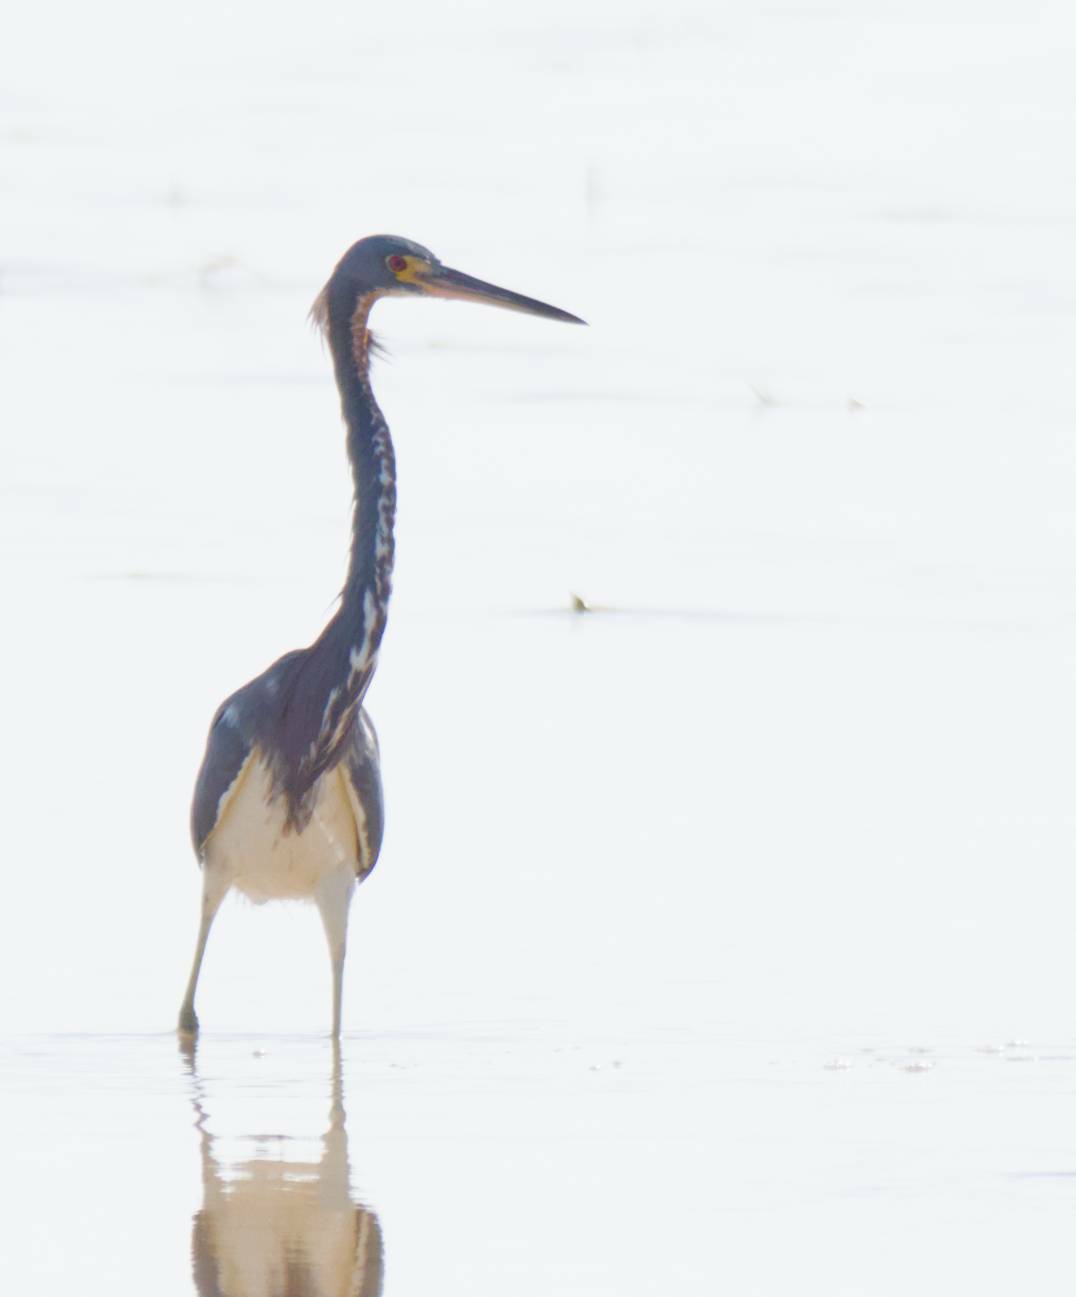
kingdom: Animalia
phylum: Chordata
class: Aves
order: Pelecaniformes
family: Ardeidae
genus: Egretta
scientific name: Egretta tricolor
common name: Tricolored heron
